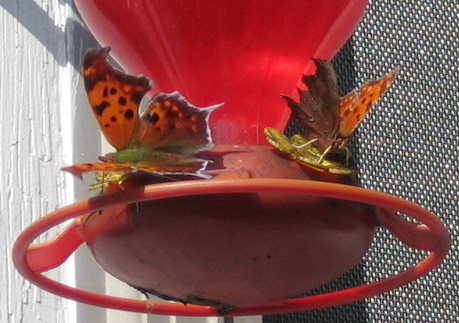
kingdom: Animalia
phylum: Arthropoda
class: Insecta
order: Lepidoptera
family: Nymphalidae
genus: Polygonia
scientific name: Polygonia interrogationis
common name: Question mark
